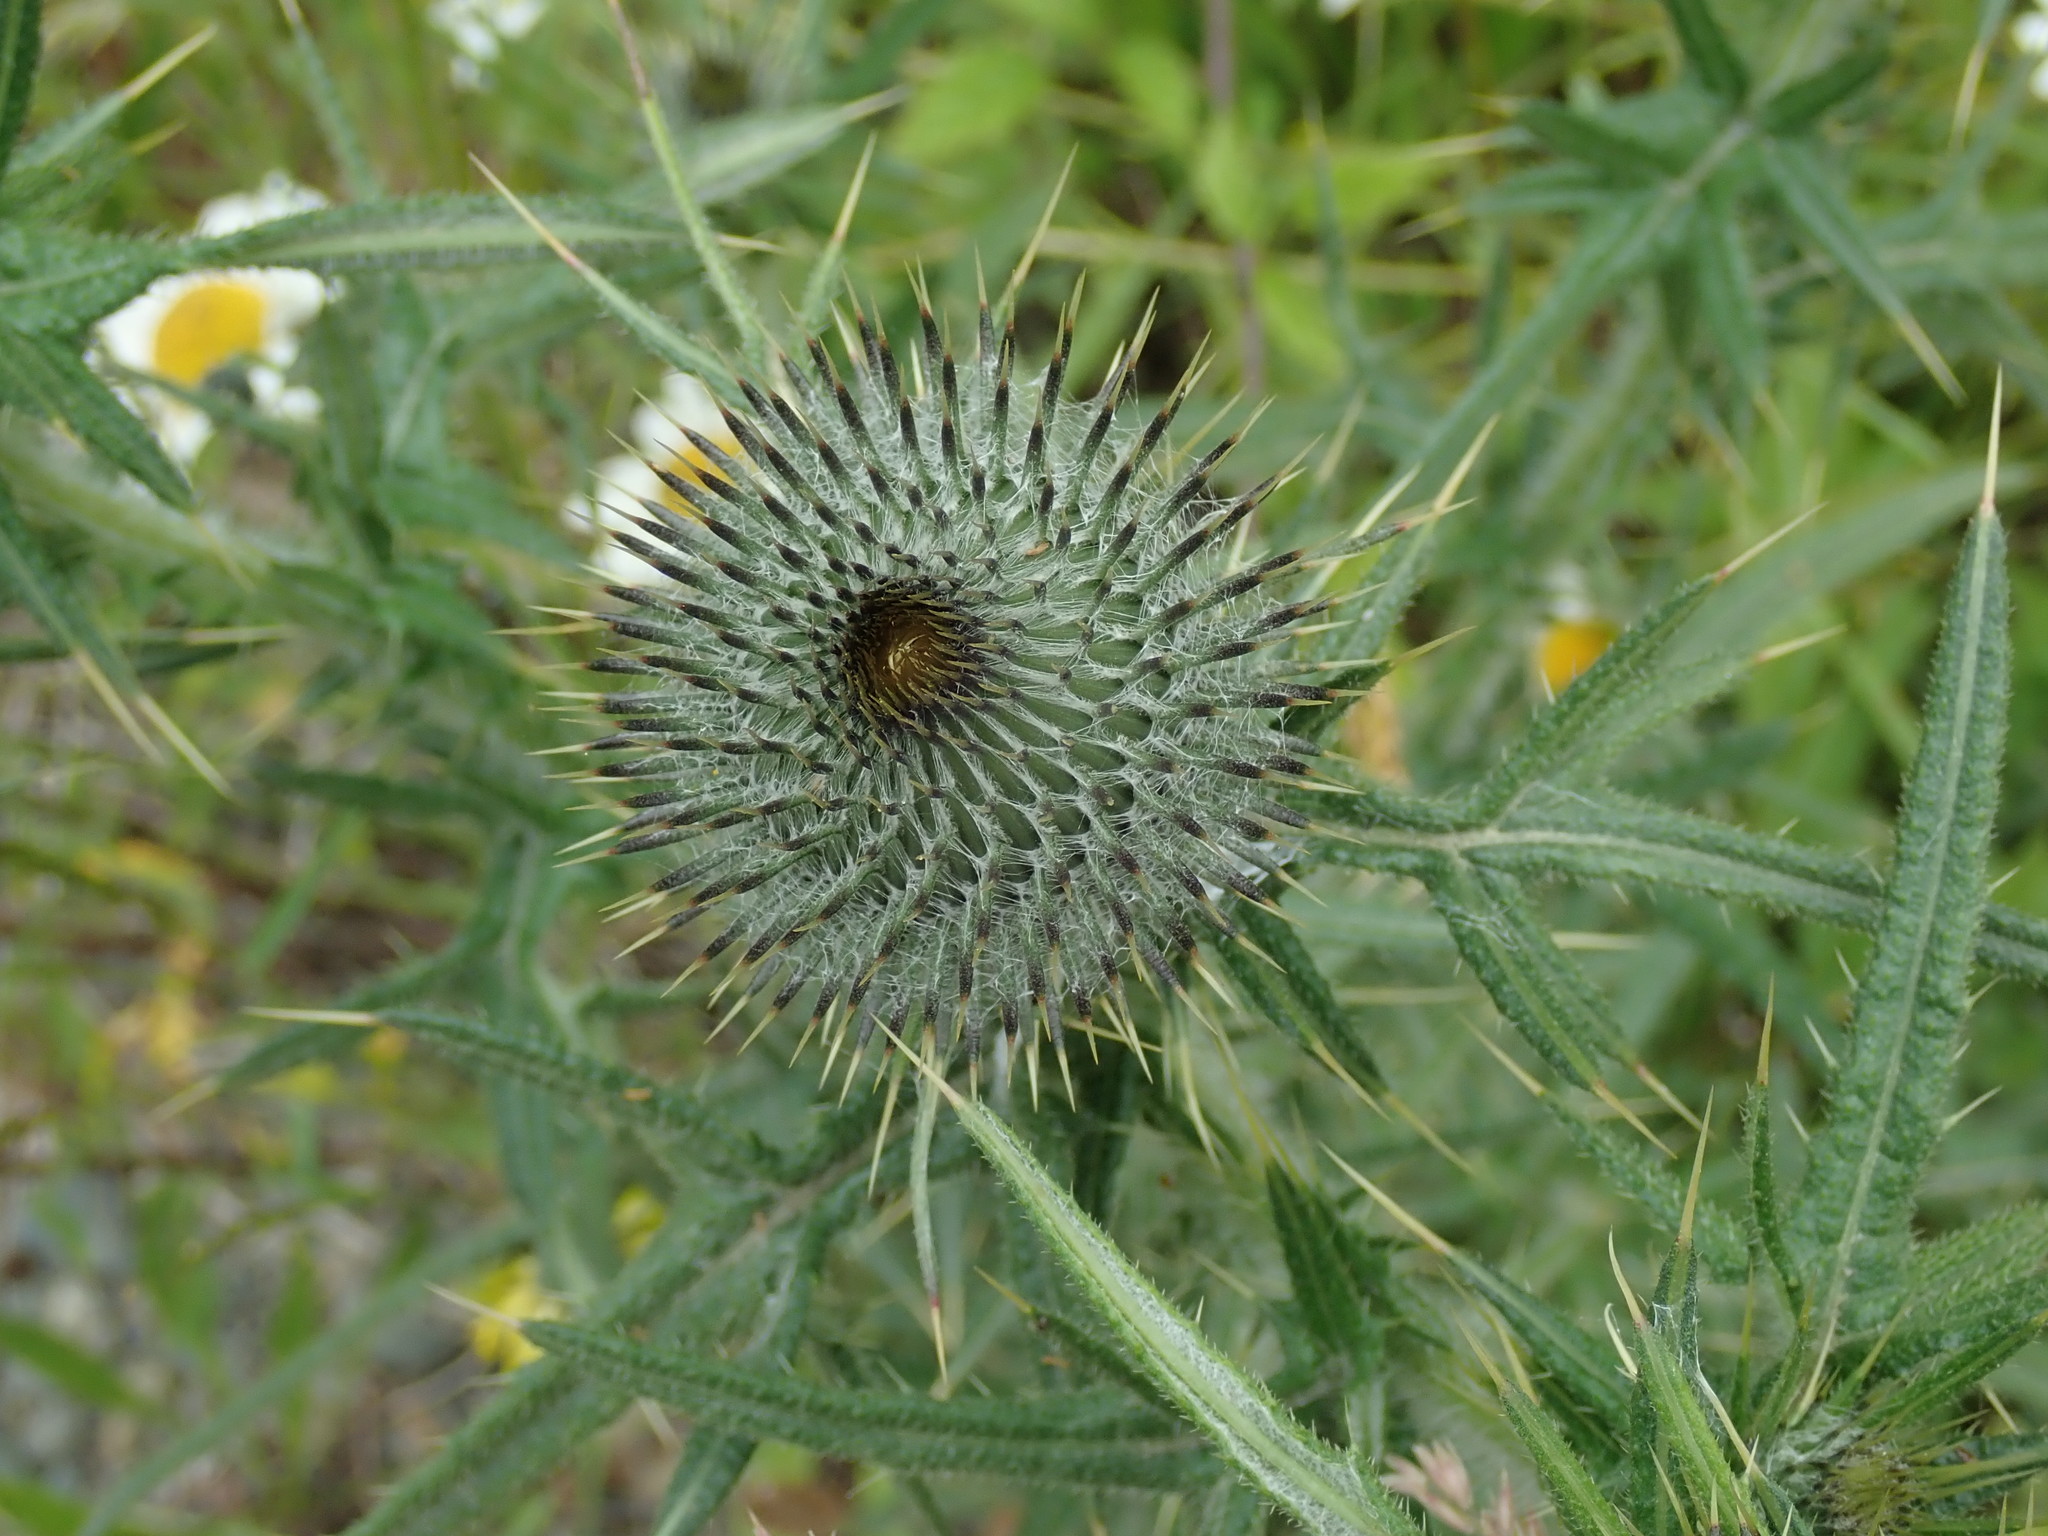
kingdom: Plantae
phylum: Tracheophyta
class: Magnoliopsida
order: Asterales
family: Asteraceae
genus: Cirsium
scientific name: Cirsium vulgare
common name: Bull thistle
